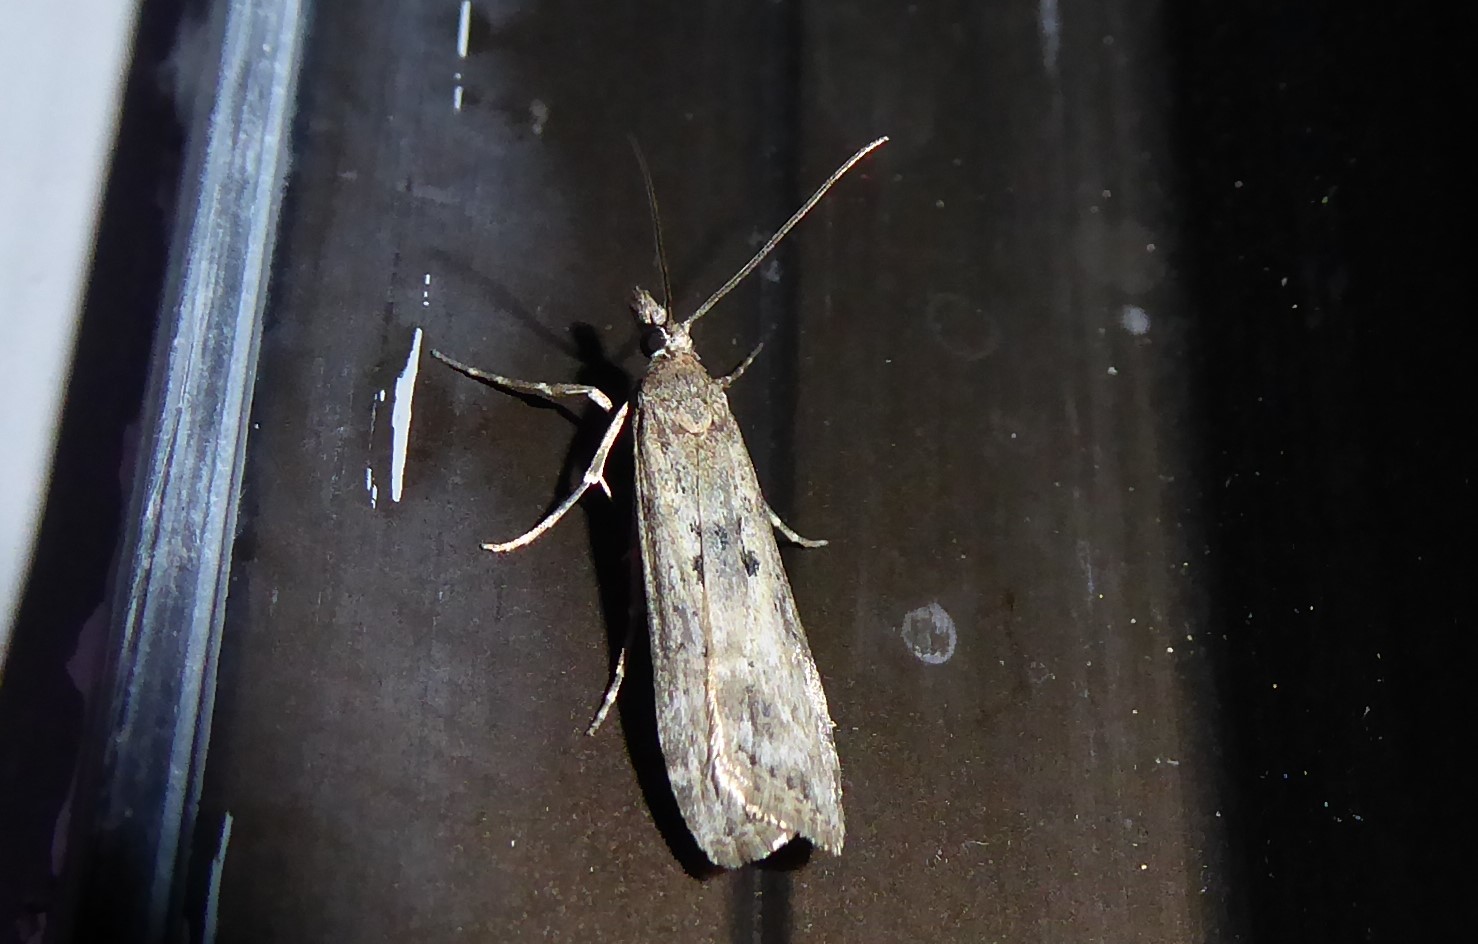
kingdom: Animalia
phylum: Arthropoda
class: Insecta
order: Lepidoptera
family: Crambidae
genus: Eudonia
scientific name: Eudonia leptalea
